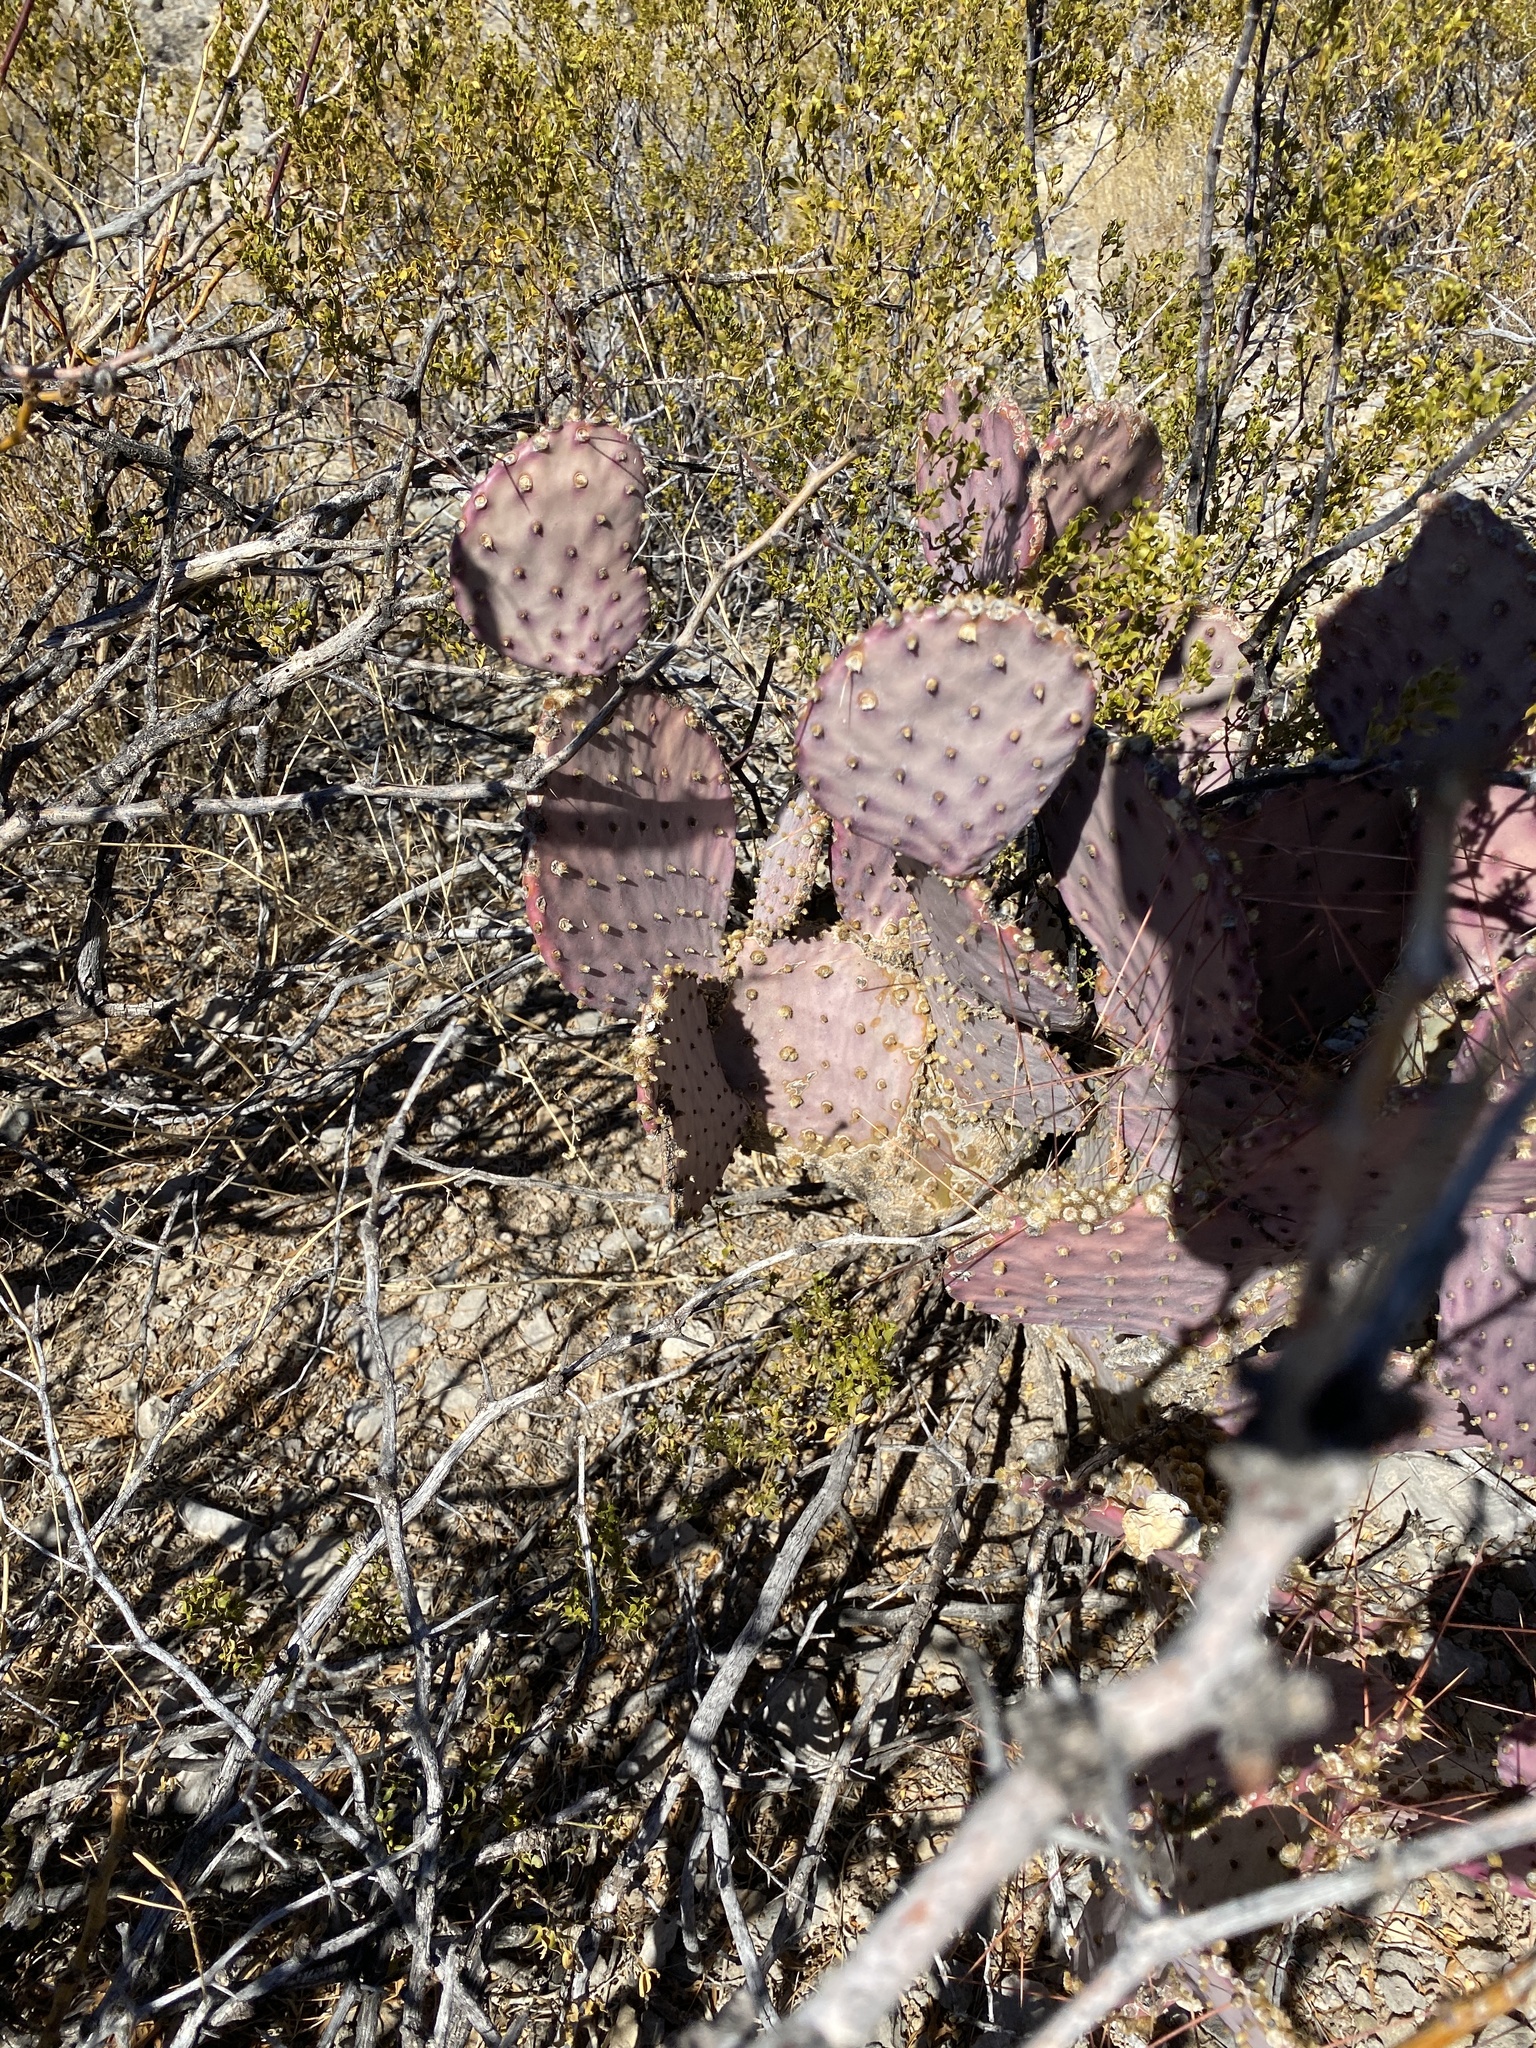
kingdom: Plantae
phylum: Tracheophyta
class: Magnoliopsida
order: Caryophyllales
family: Cactaceae
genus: Opuntia
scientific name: Opuntia macrocentra
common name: Purple prickly-pear
